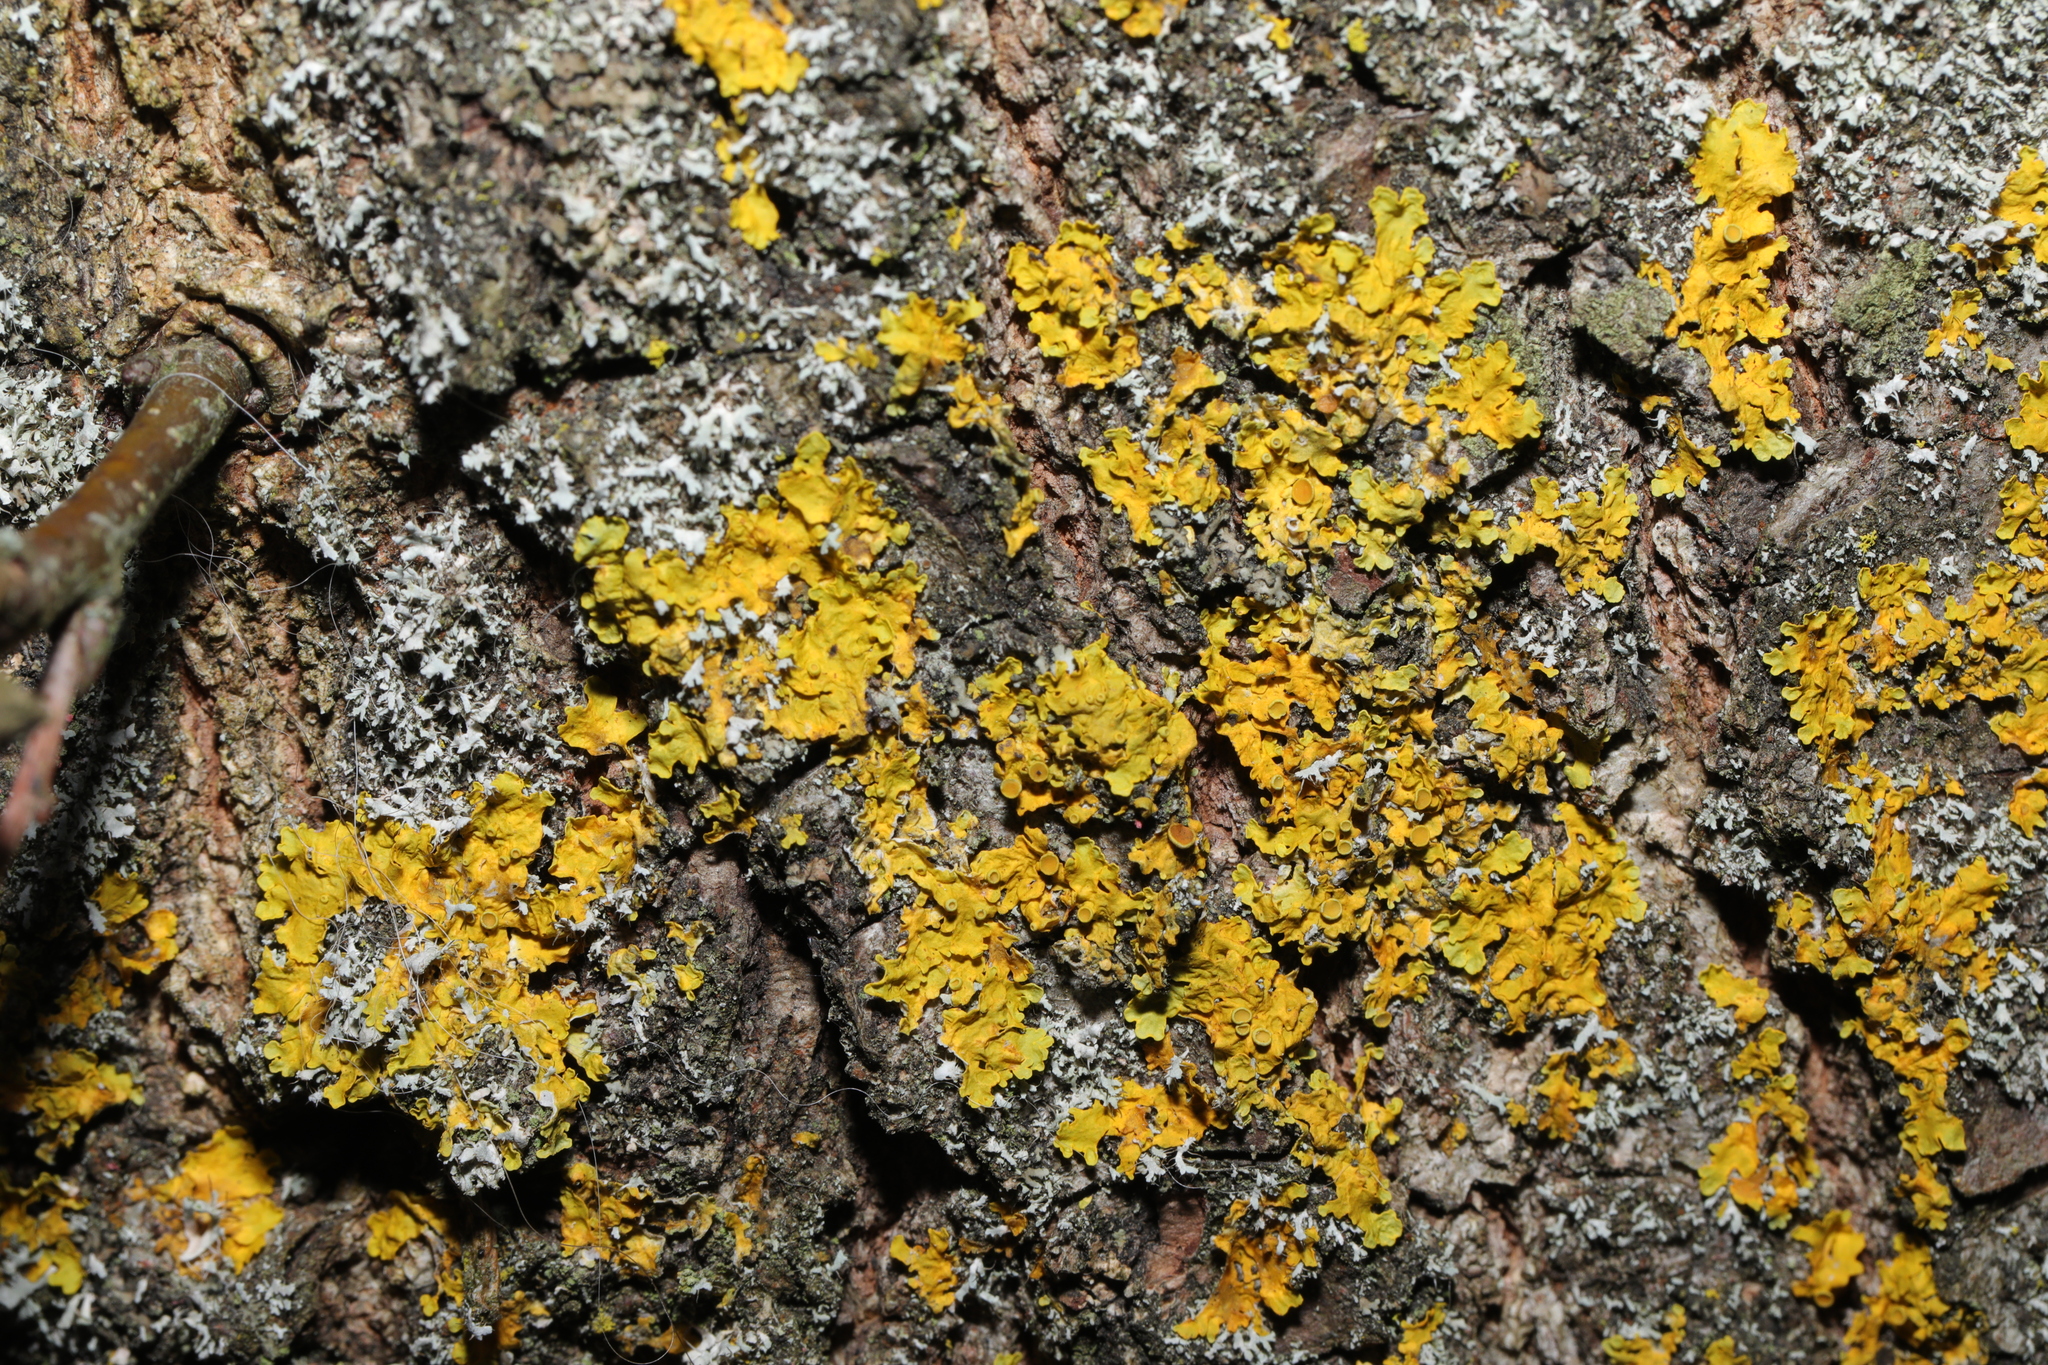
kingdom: Fungi
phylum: Ascomycota
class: Lecanoromycetes
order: Teloschistales
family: Teloschistaceae
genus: Xanthoria
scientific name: Xanthoria parietina
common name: Common orange lichen
